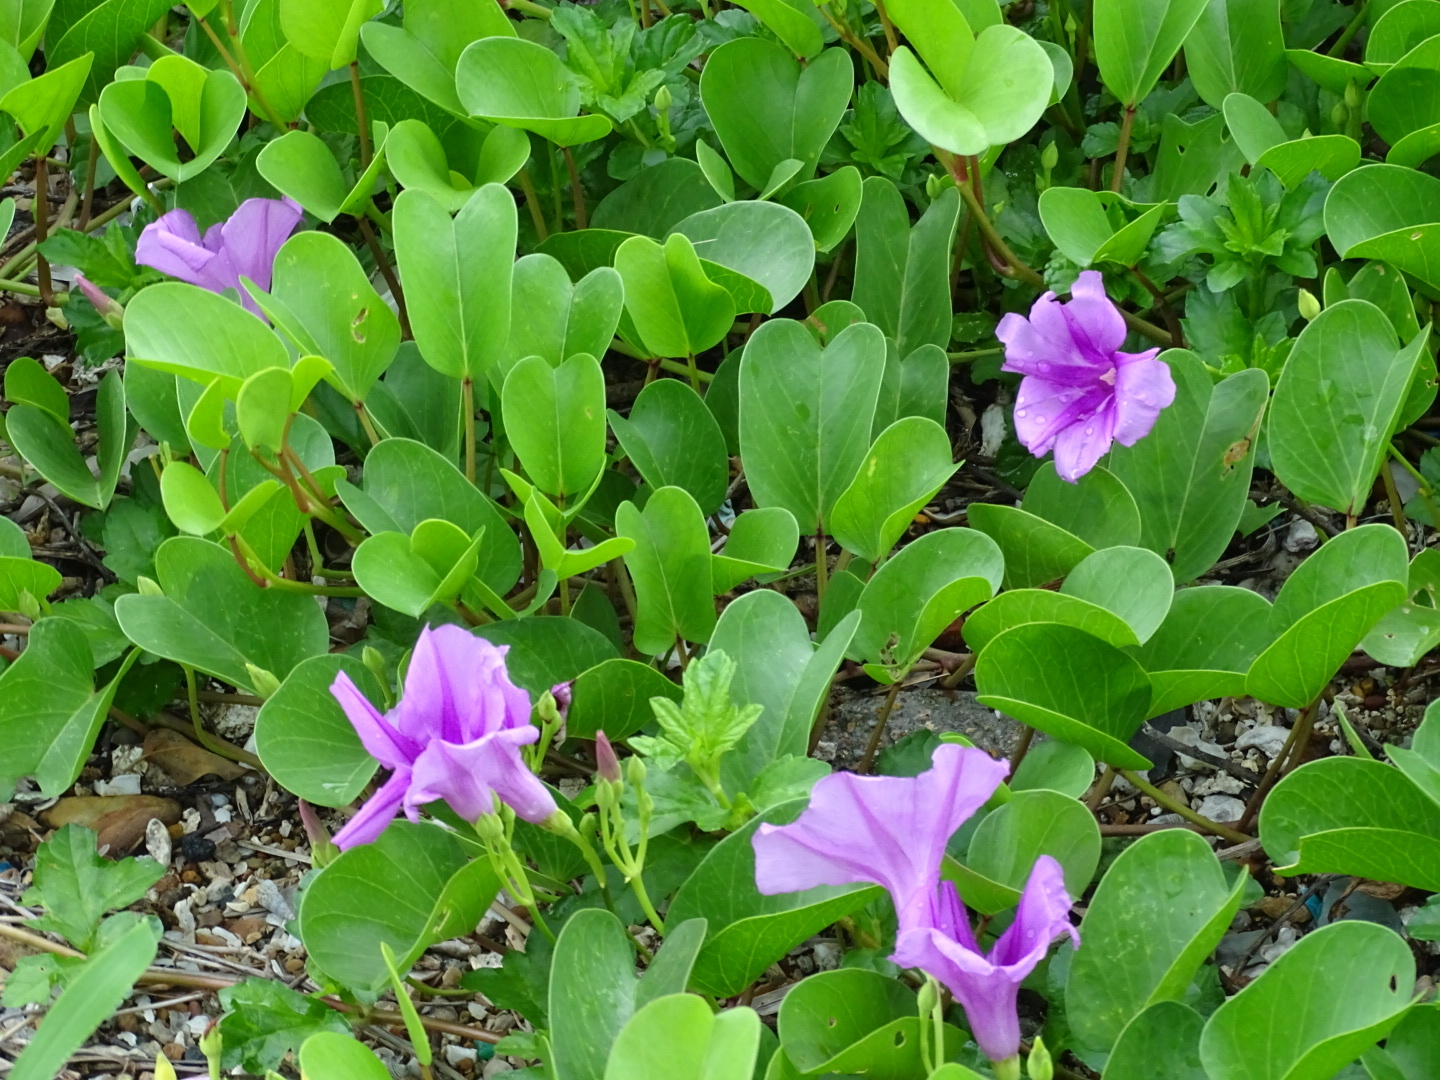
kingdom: Plantae
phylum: Tracheophyta
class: Magnoliopsida
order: Solanales
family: Convolvulaceae
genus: Ipomoea
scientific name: Ipomoea pes-caprae
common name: Beach morning glory
